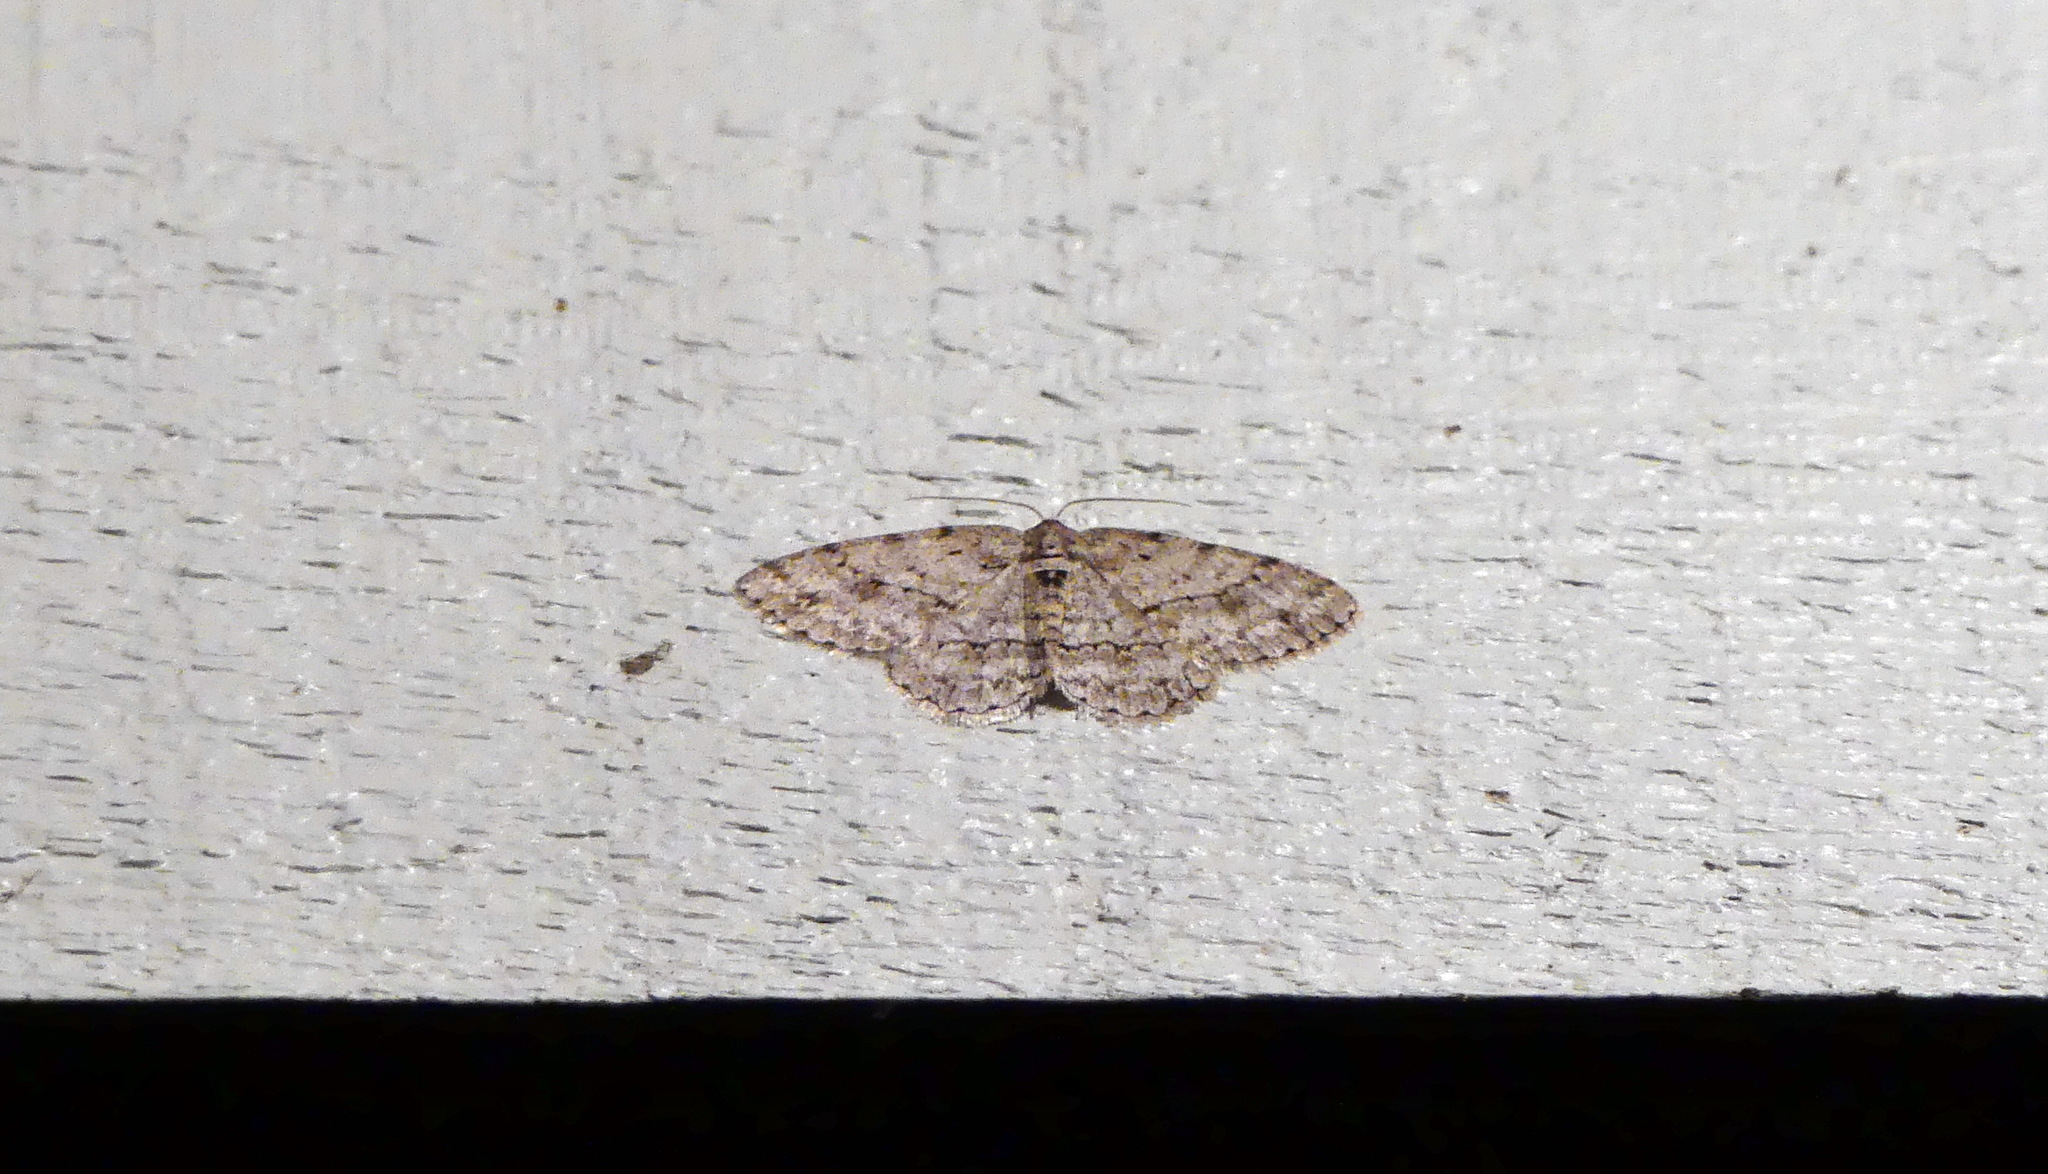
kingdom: Animalia
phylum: Arthropoda
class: Insecta
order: Lepidoptera
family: Geometridae
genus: Ectropis
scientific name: Ectropis crepuscularia
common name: Engrailed
